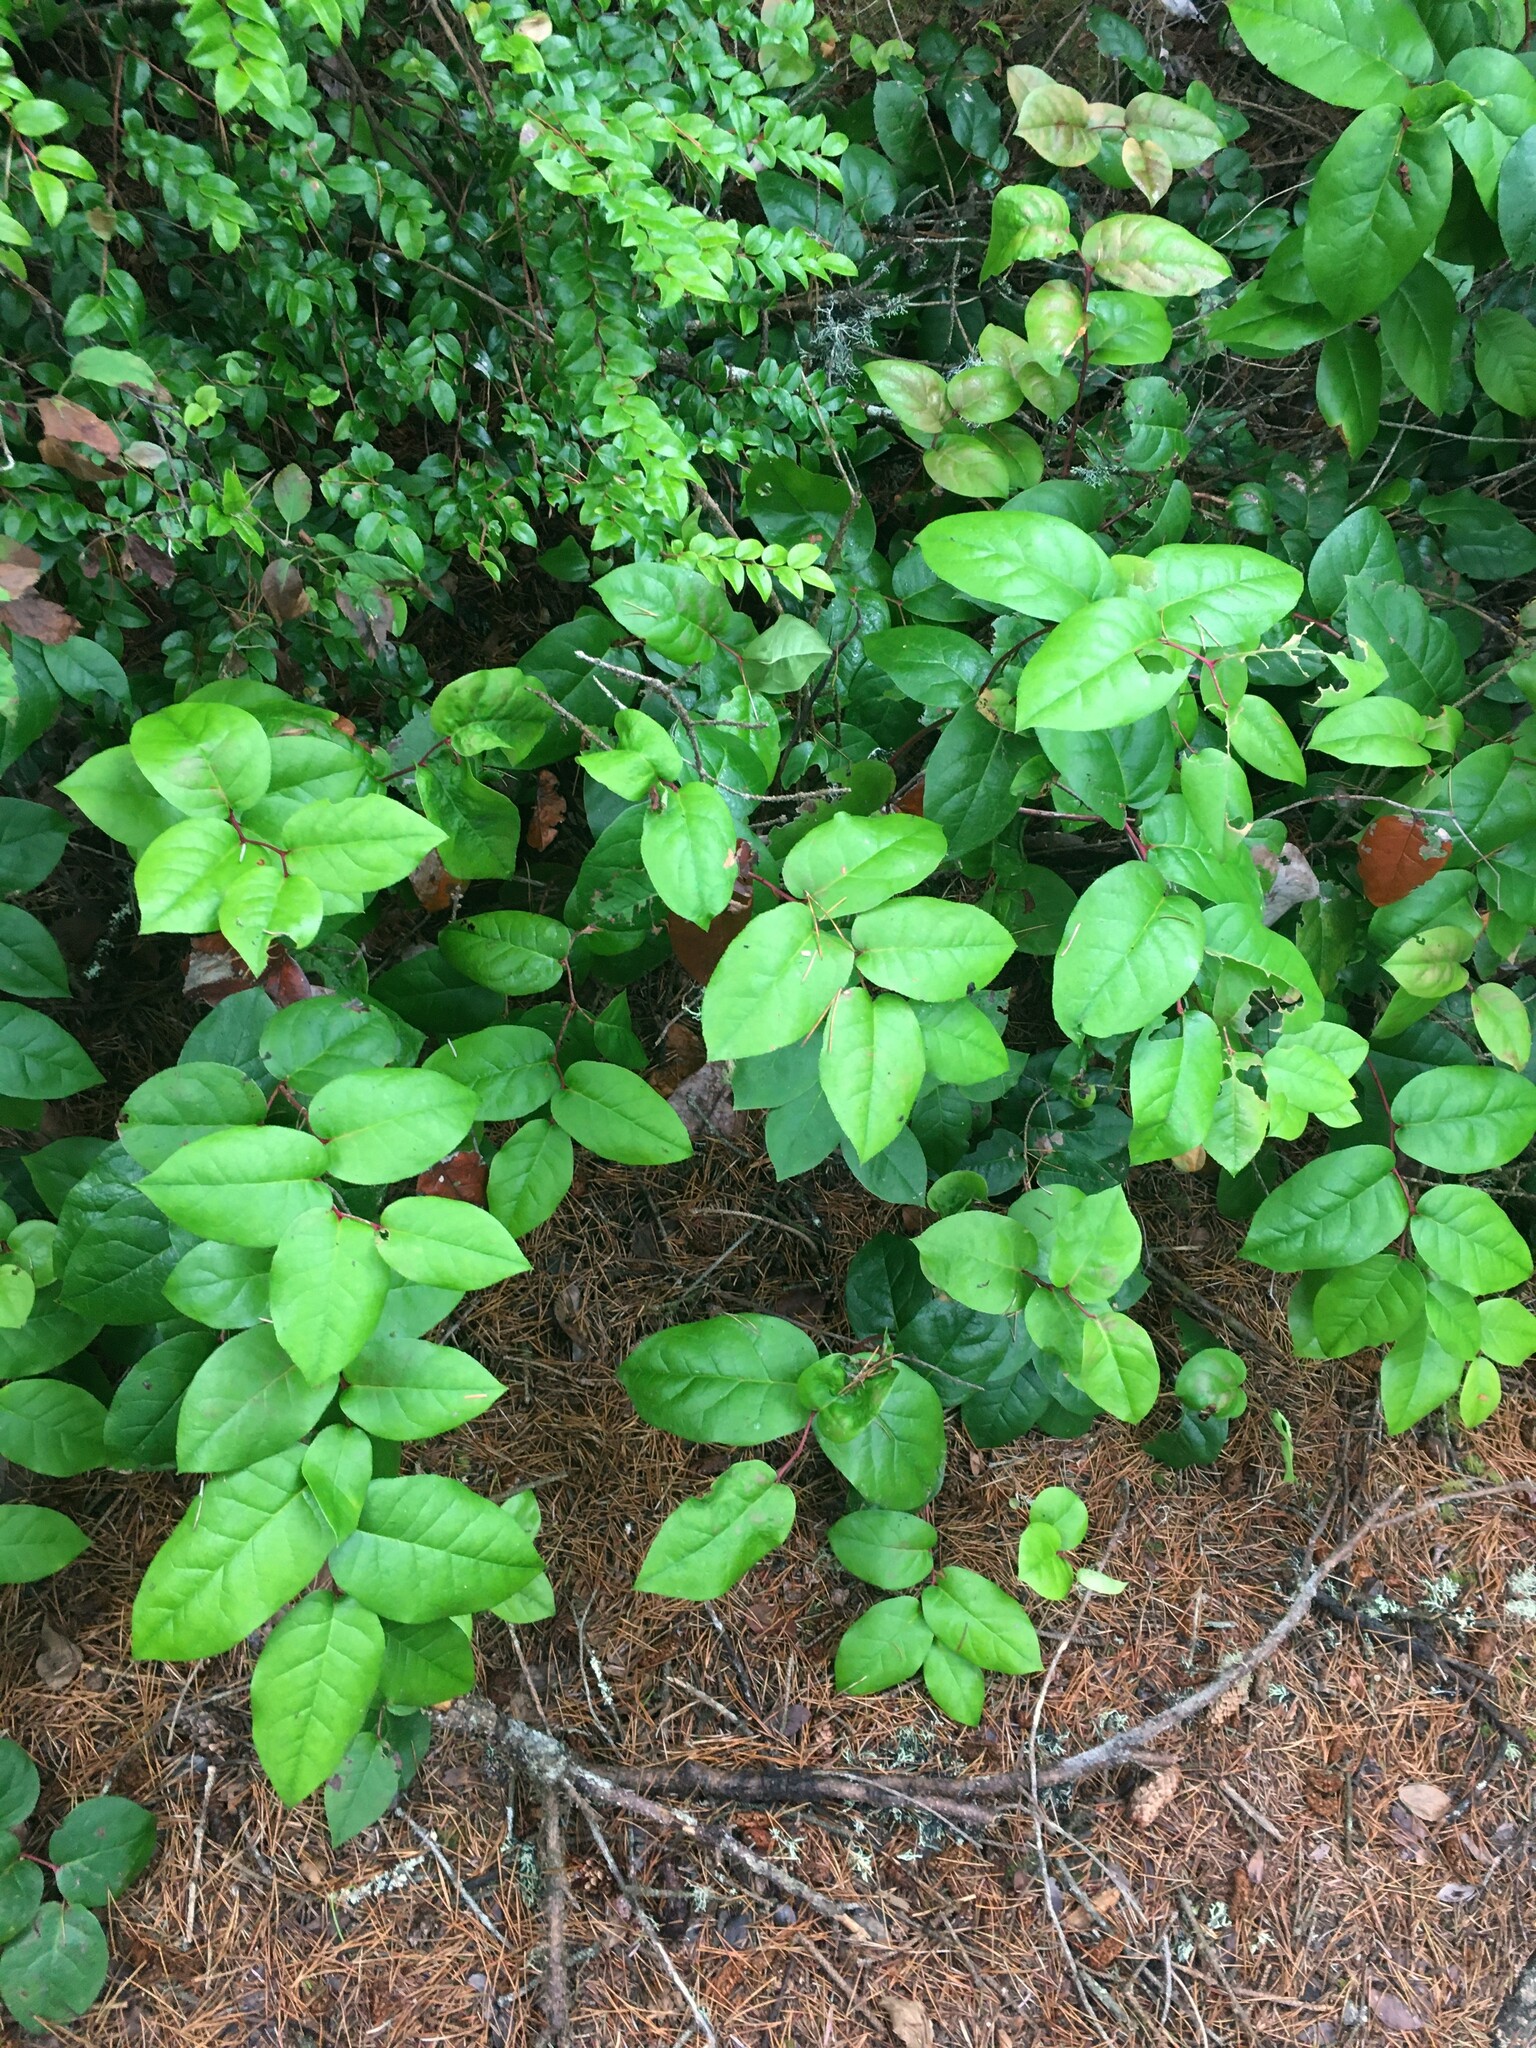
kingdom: Plantae
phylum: Tracheophyta
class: Magnoliopsida
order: Ericales
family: Ericaceae
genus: Gaultheria
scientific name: Gaultheria shallon
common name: Shallon
